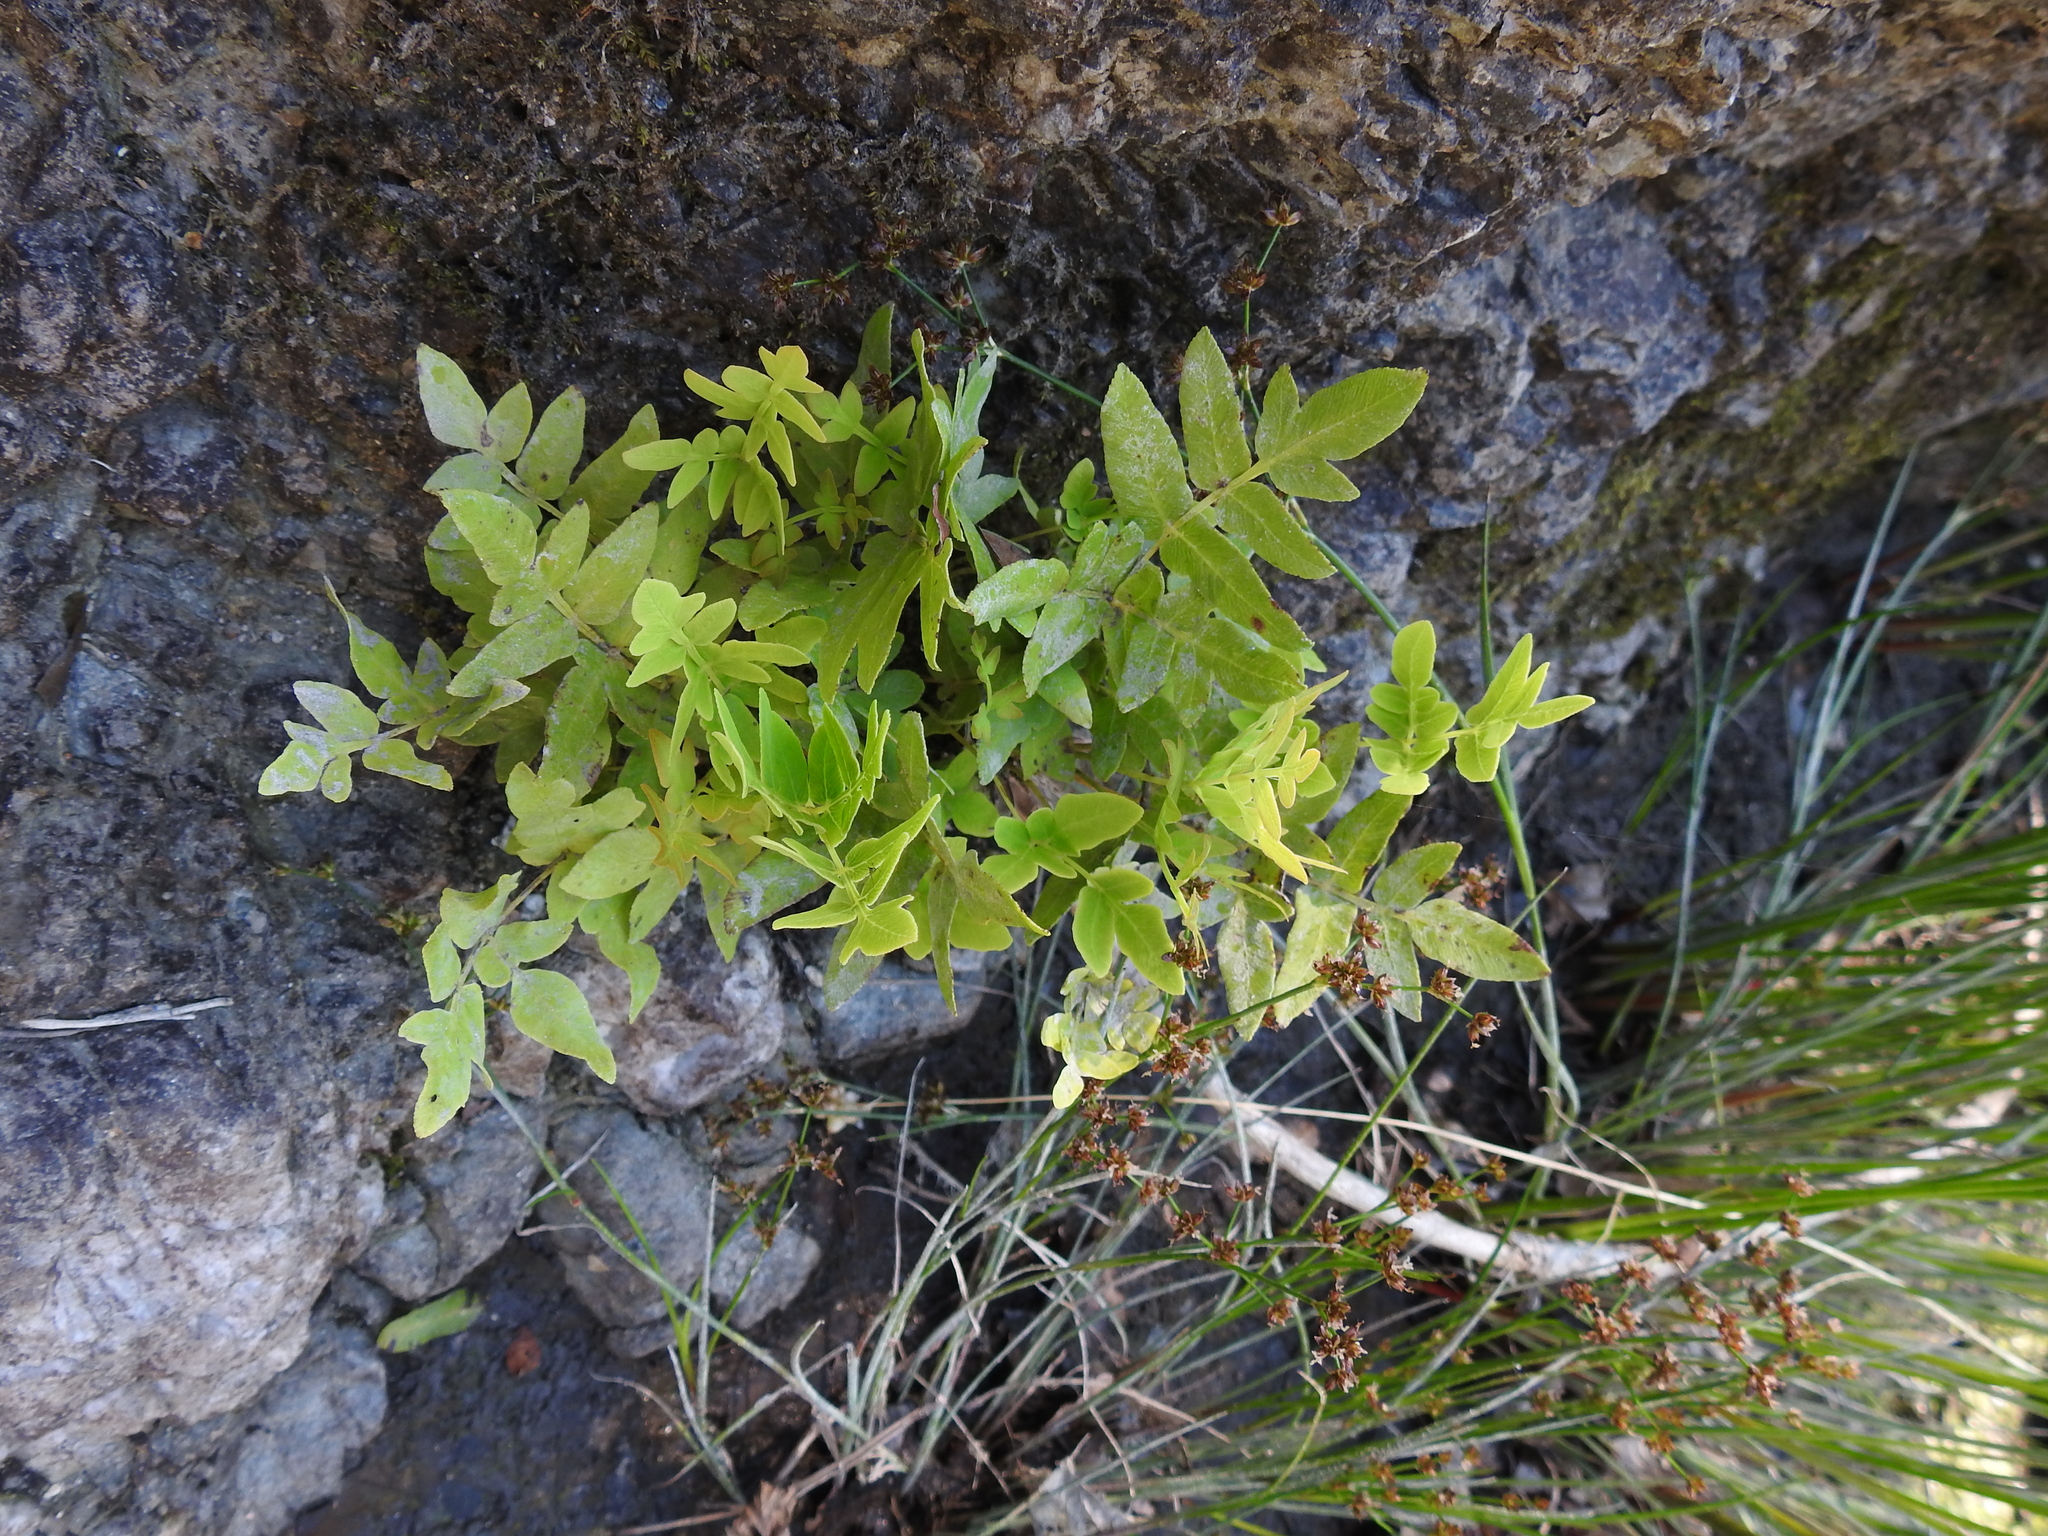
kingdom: Plantae
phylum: Tracheophyta
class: Polypodiopsida
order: Osmundales
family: Osmundaceae
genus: Osmunda
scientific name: Osmunda regalis
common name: Royal fern
